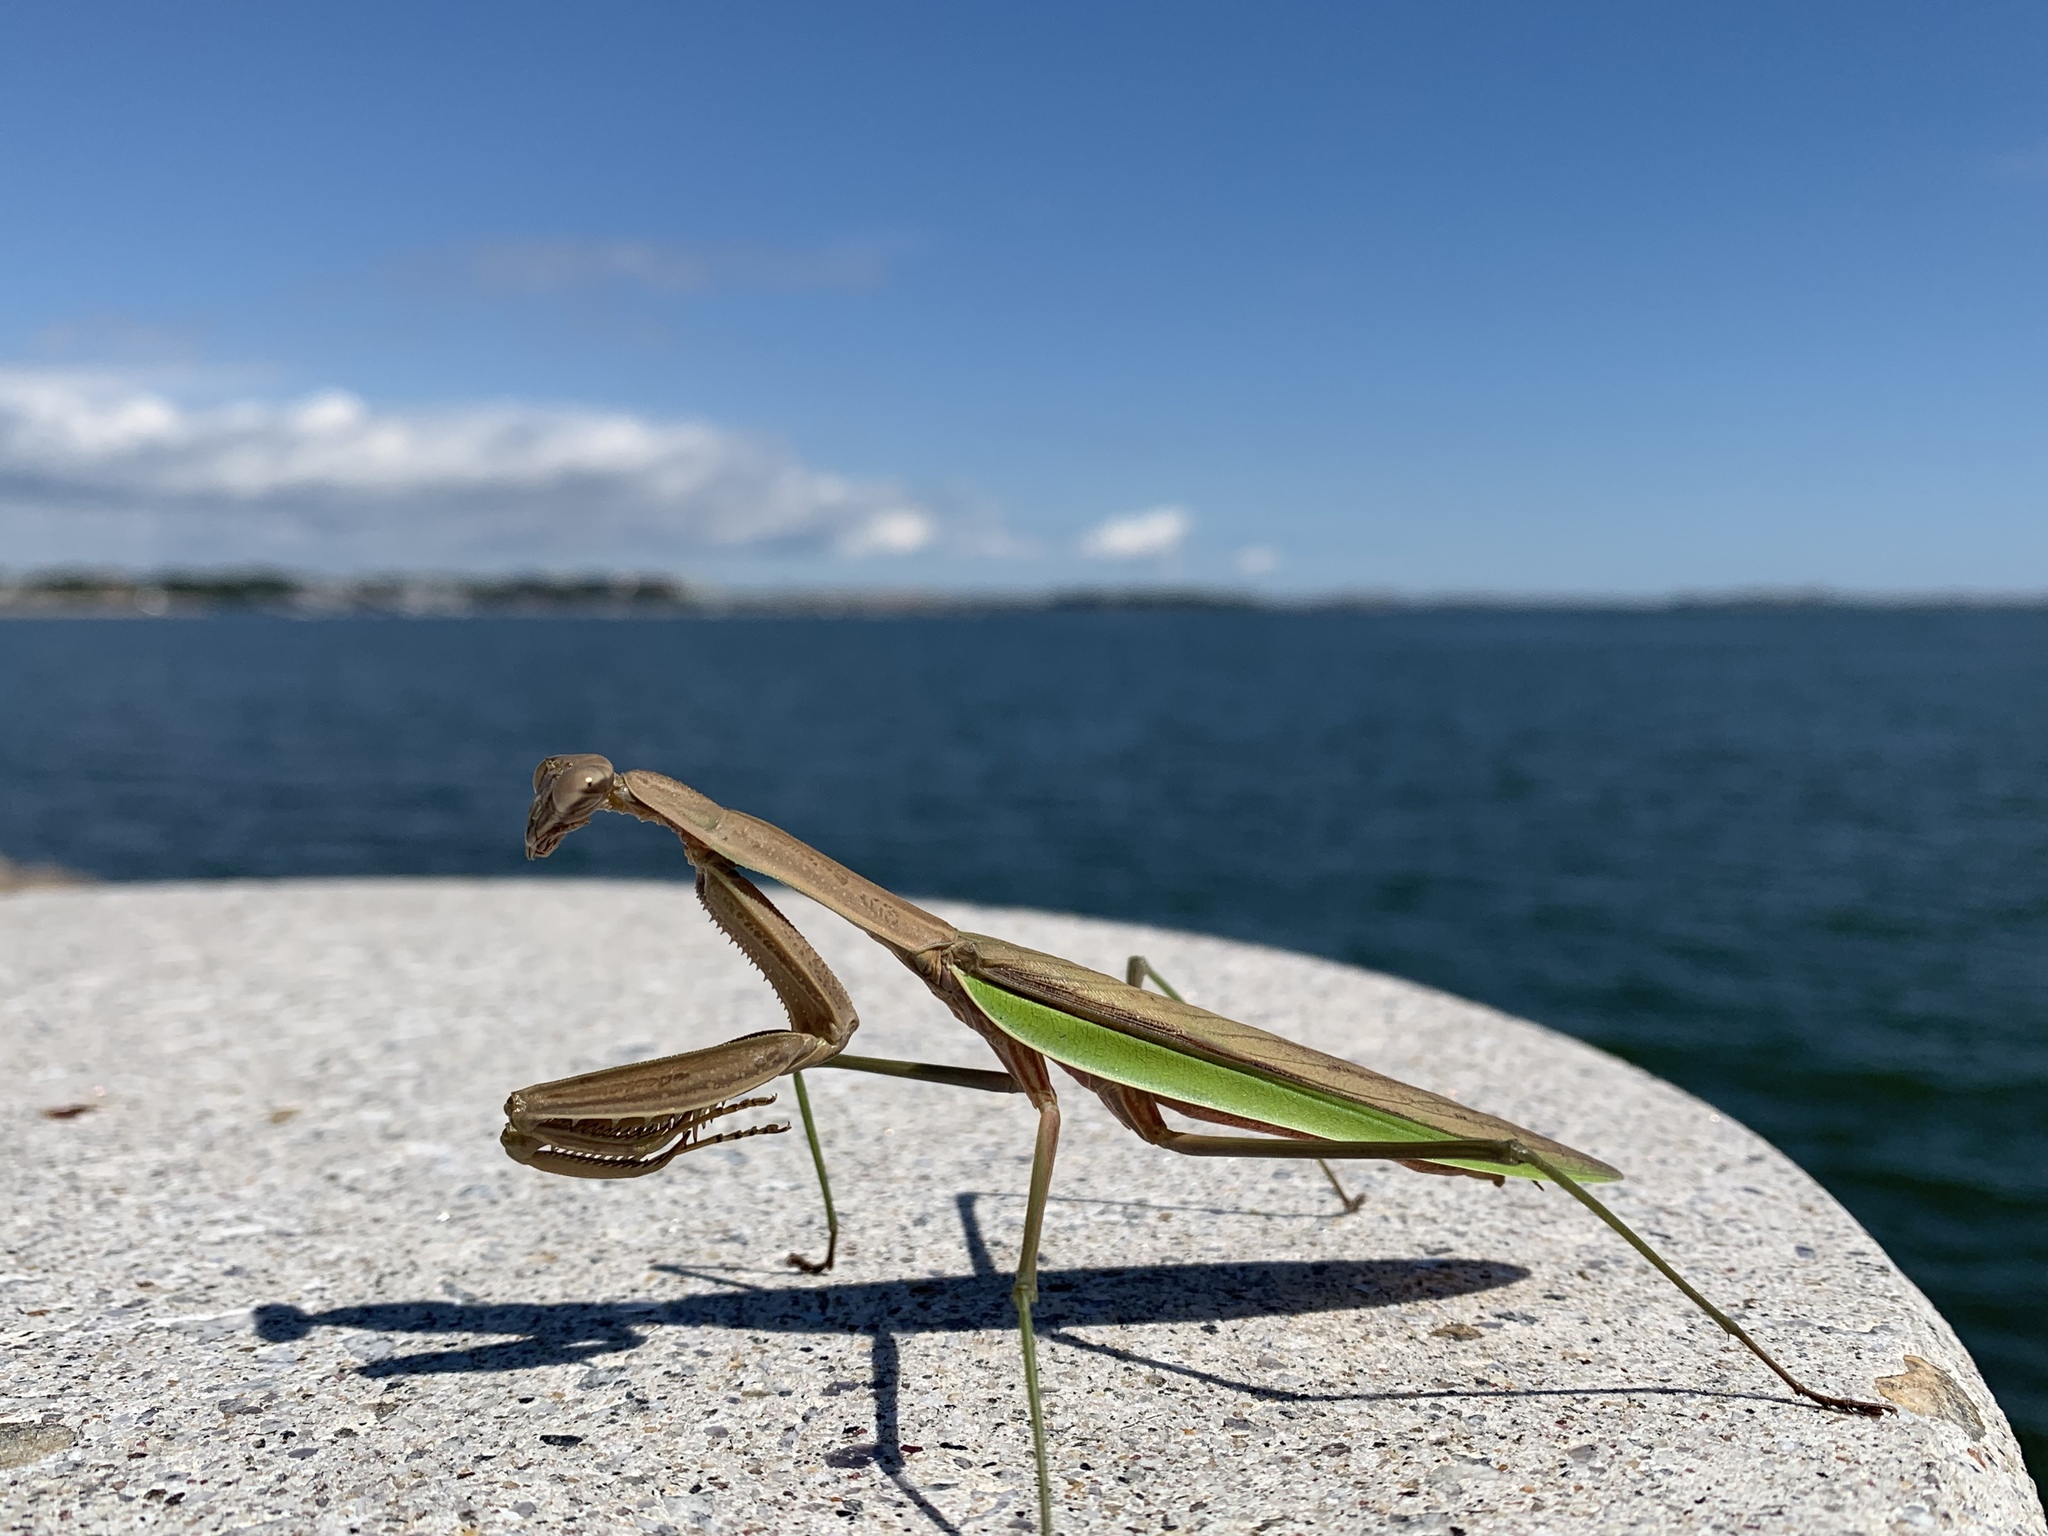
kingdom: Animalia
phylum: Arthropoda
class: Insecta
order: Mantodea
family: Mantidae
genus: Tenodera
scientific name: Tenodera sinensis
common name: Chinese mantis
